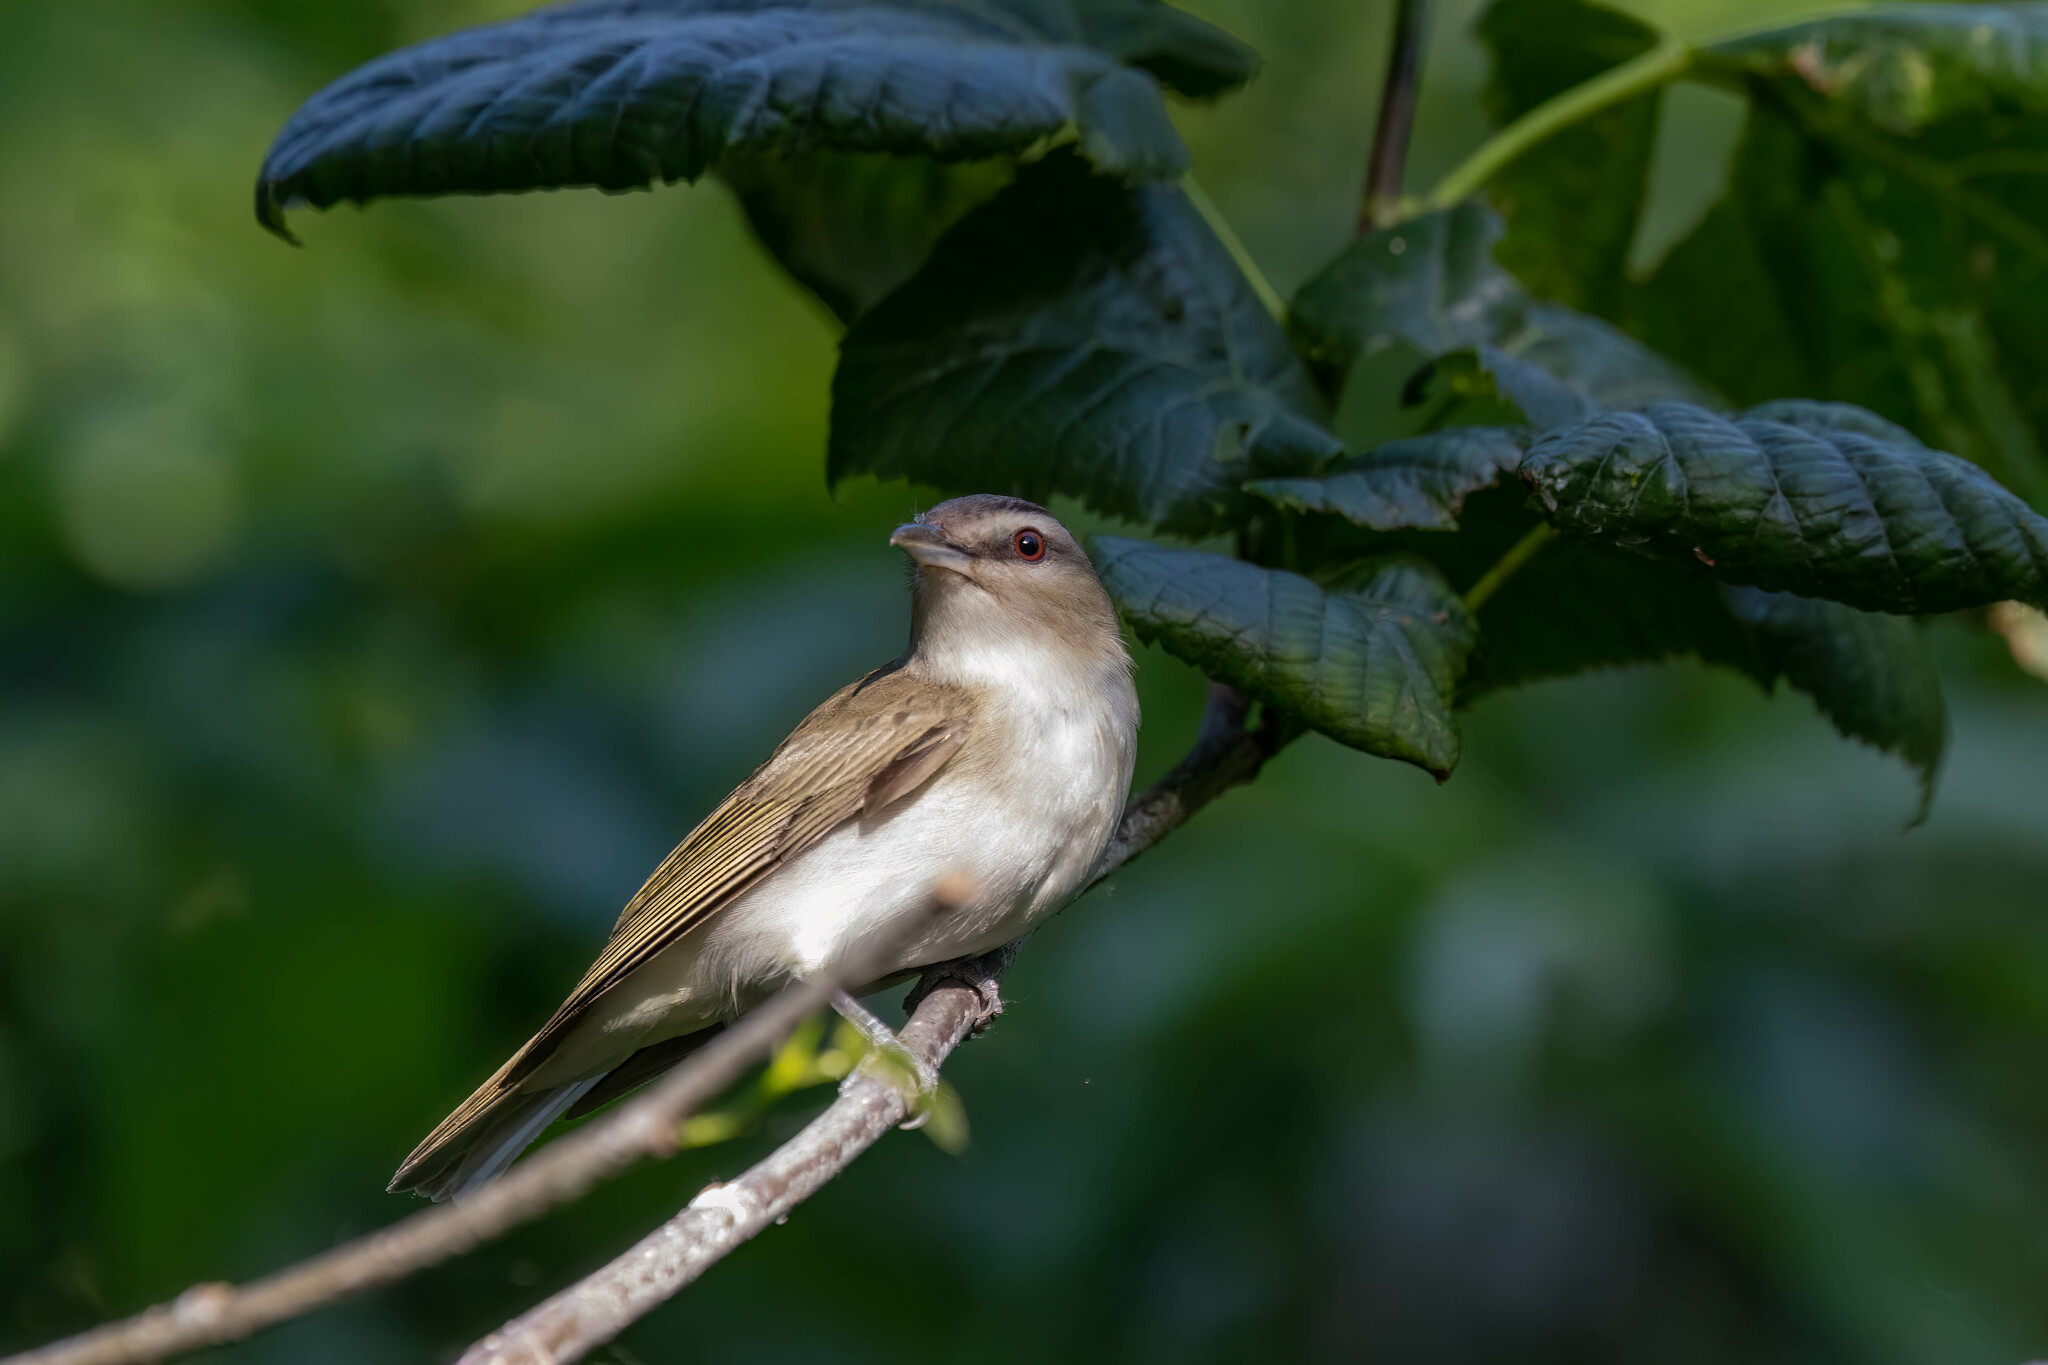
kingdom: Animalia
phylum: Chordata
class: Aves
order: Passeriformes
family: Vireonidae
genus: Vireo
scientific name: Vireo olivaceus
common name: Red-eyed vireo
